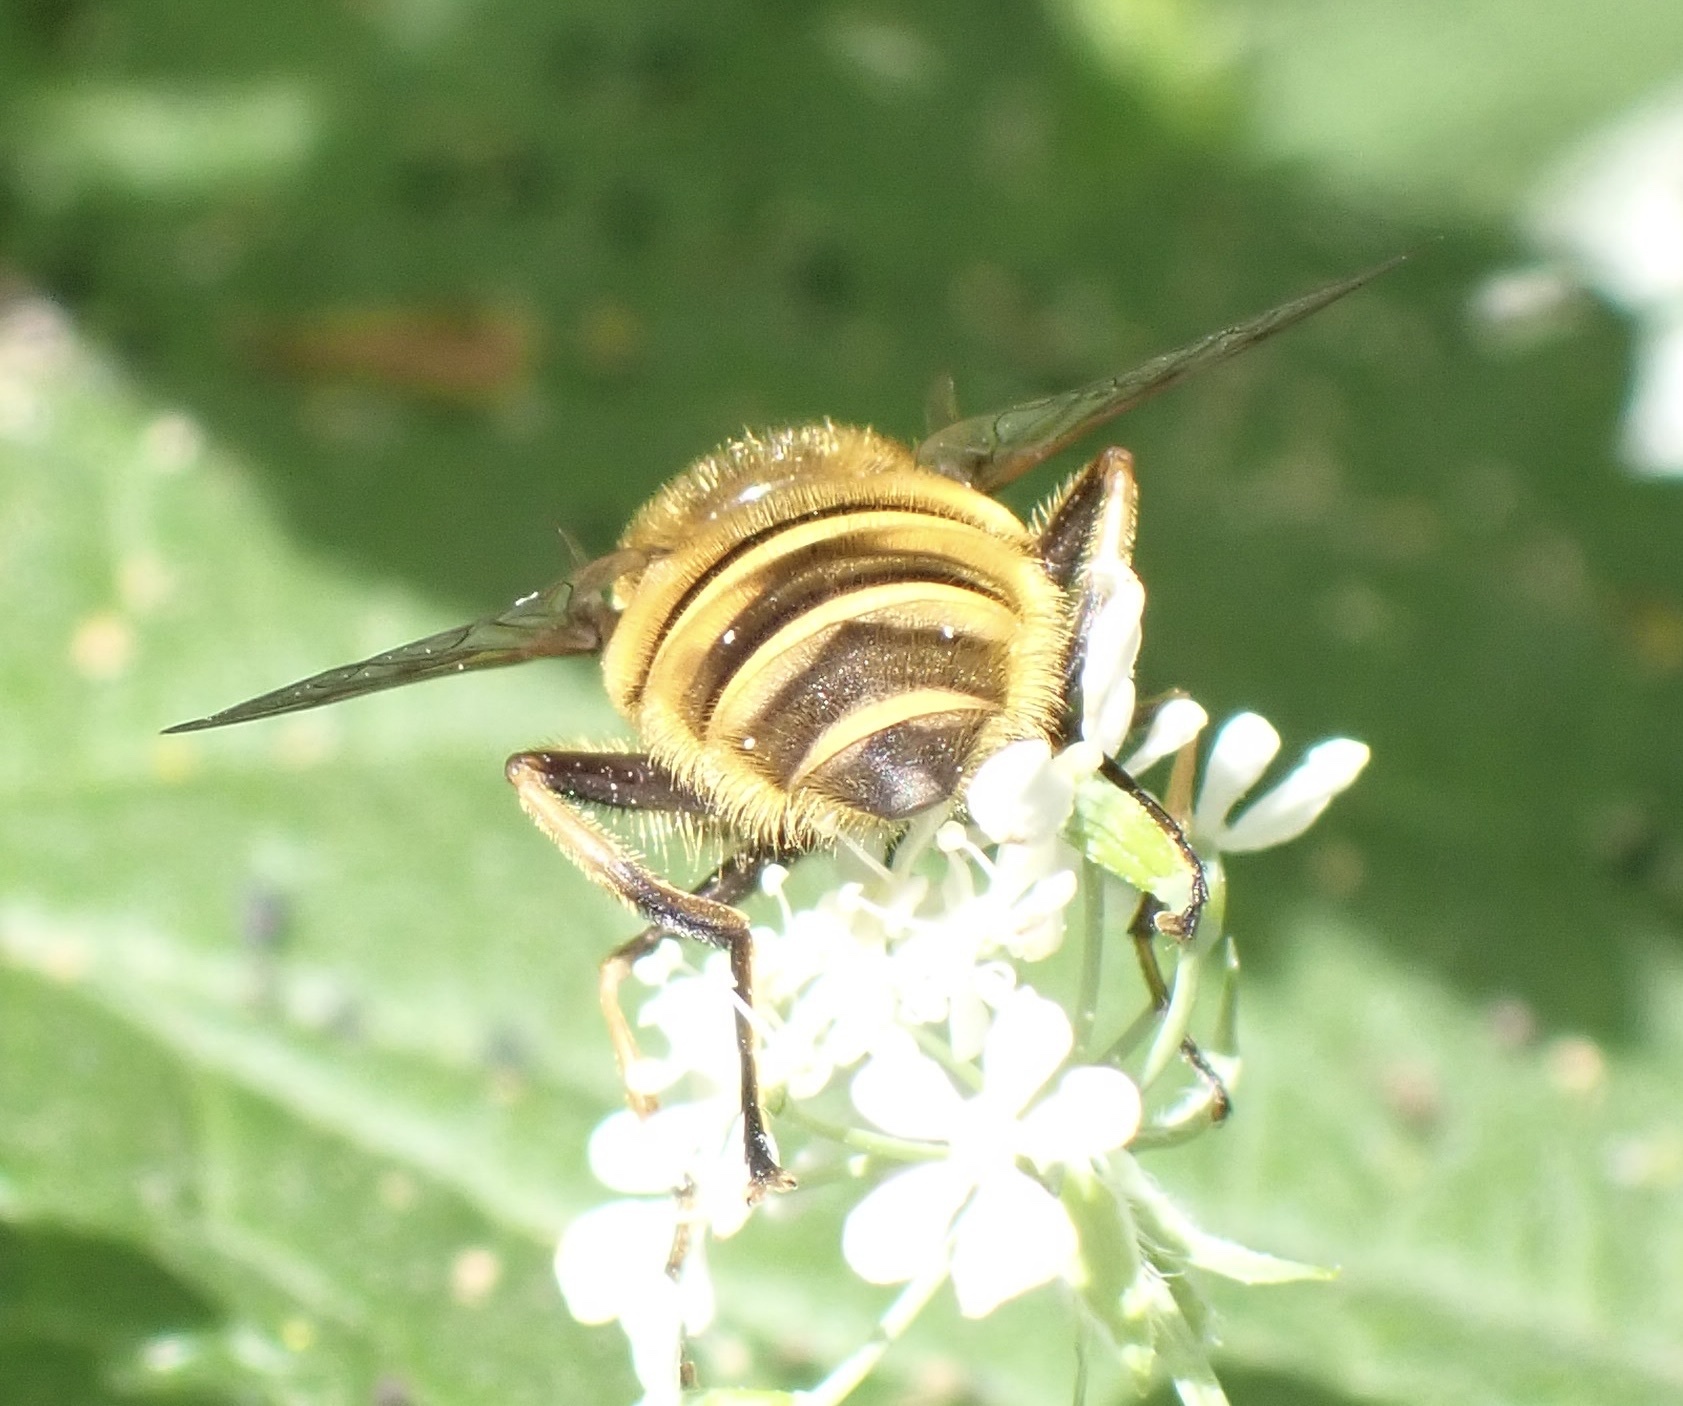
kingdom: Animalia
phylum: Arthropoda
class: Insecta
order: Diptera
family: Syrphidae
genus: Myathropa
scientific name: Myathropa florea
